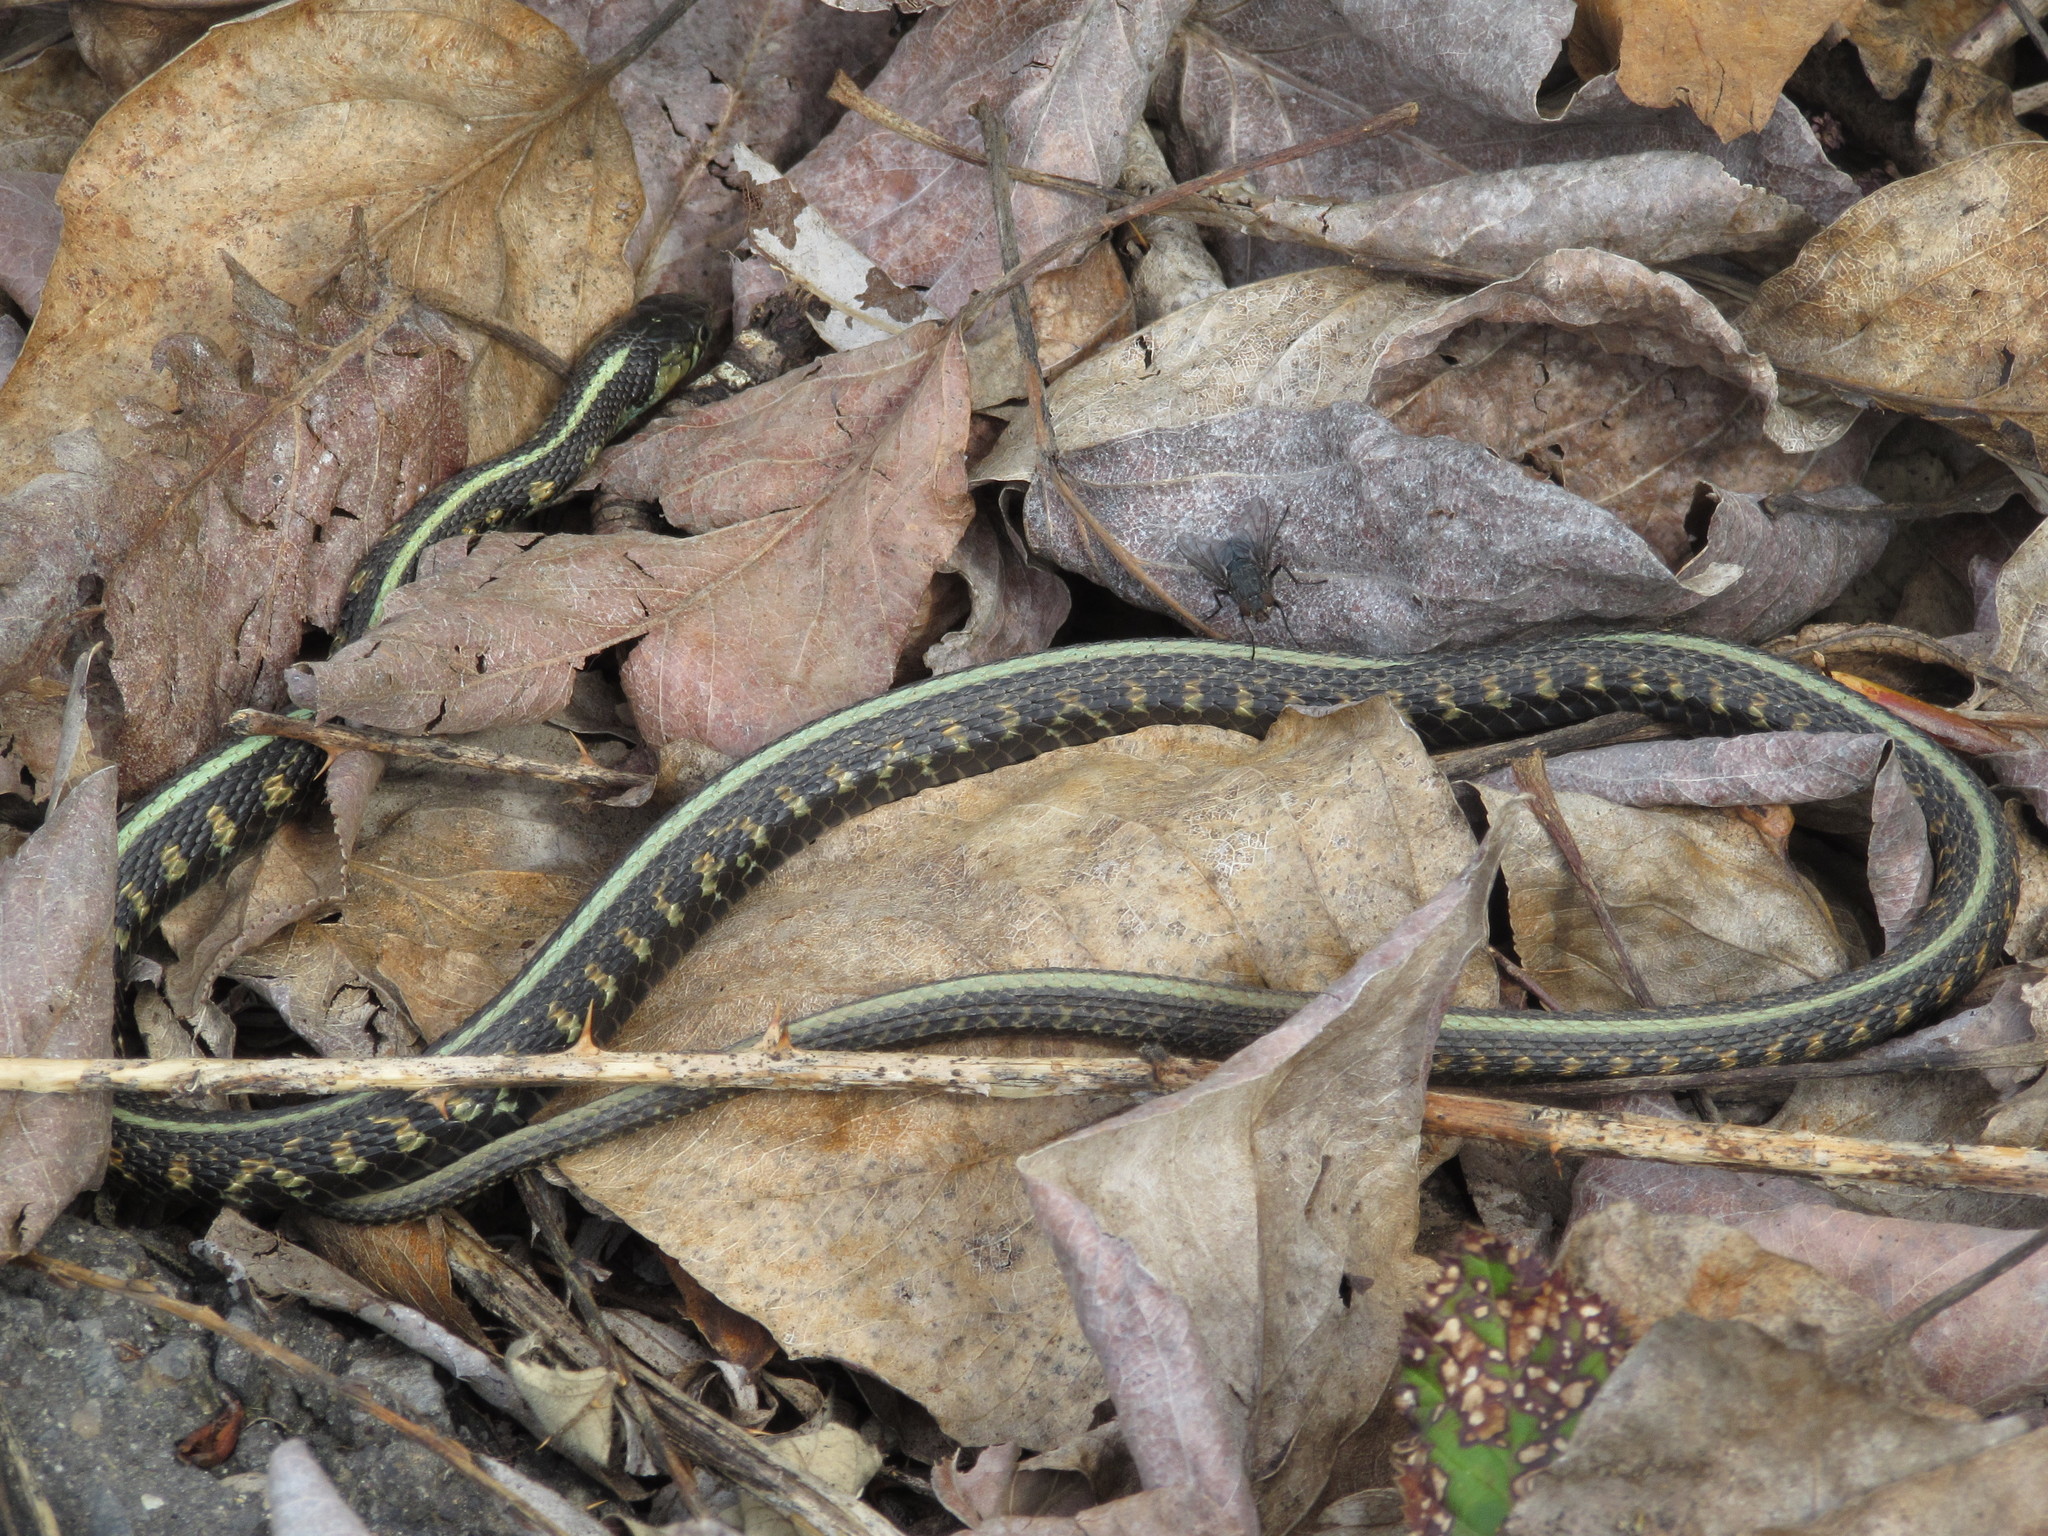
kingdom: Animalia
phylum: Chordata
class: Squamata
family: Colubridae
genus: Thamnophis
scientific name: Thamnophis sirtalis
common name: Common garter snake
